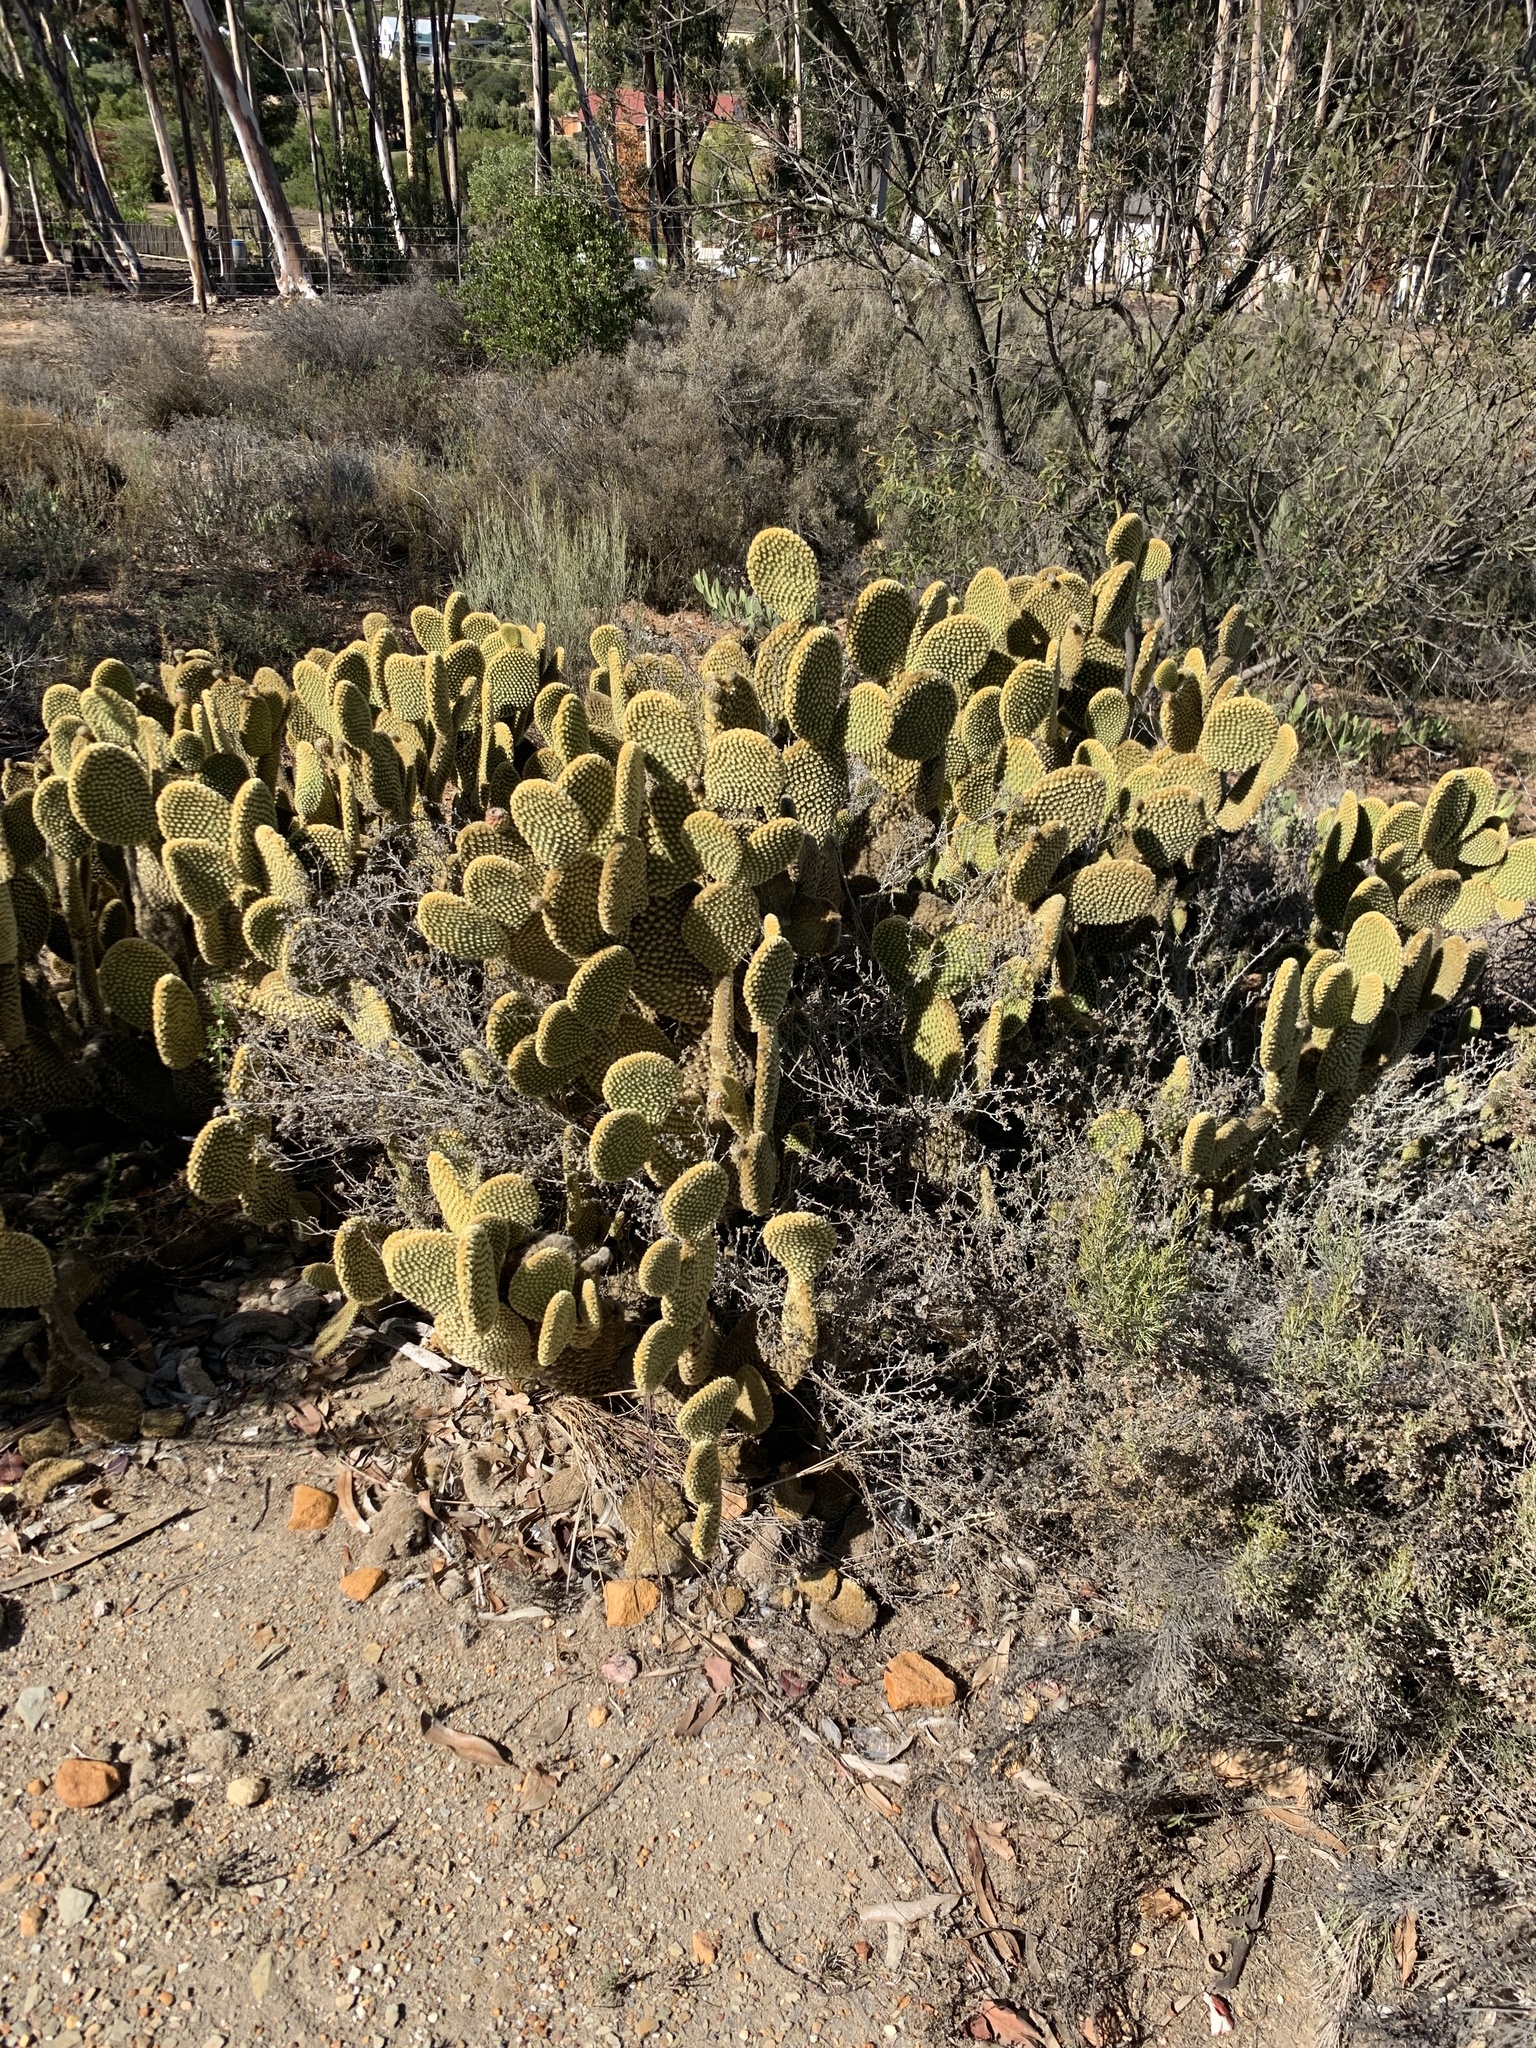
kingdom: Plantae
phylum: Tracheophyta
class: Magnoliopsida
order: Caryophyllales
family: Cactaceae
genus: Opuntia
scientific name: Opuntia microdasys
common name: Angel's-wings
